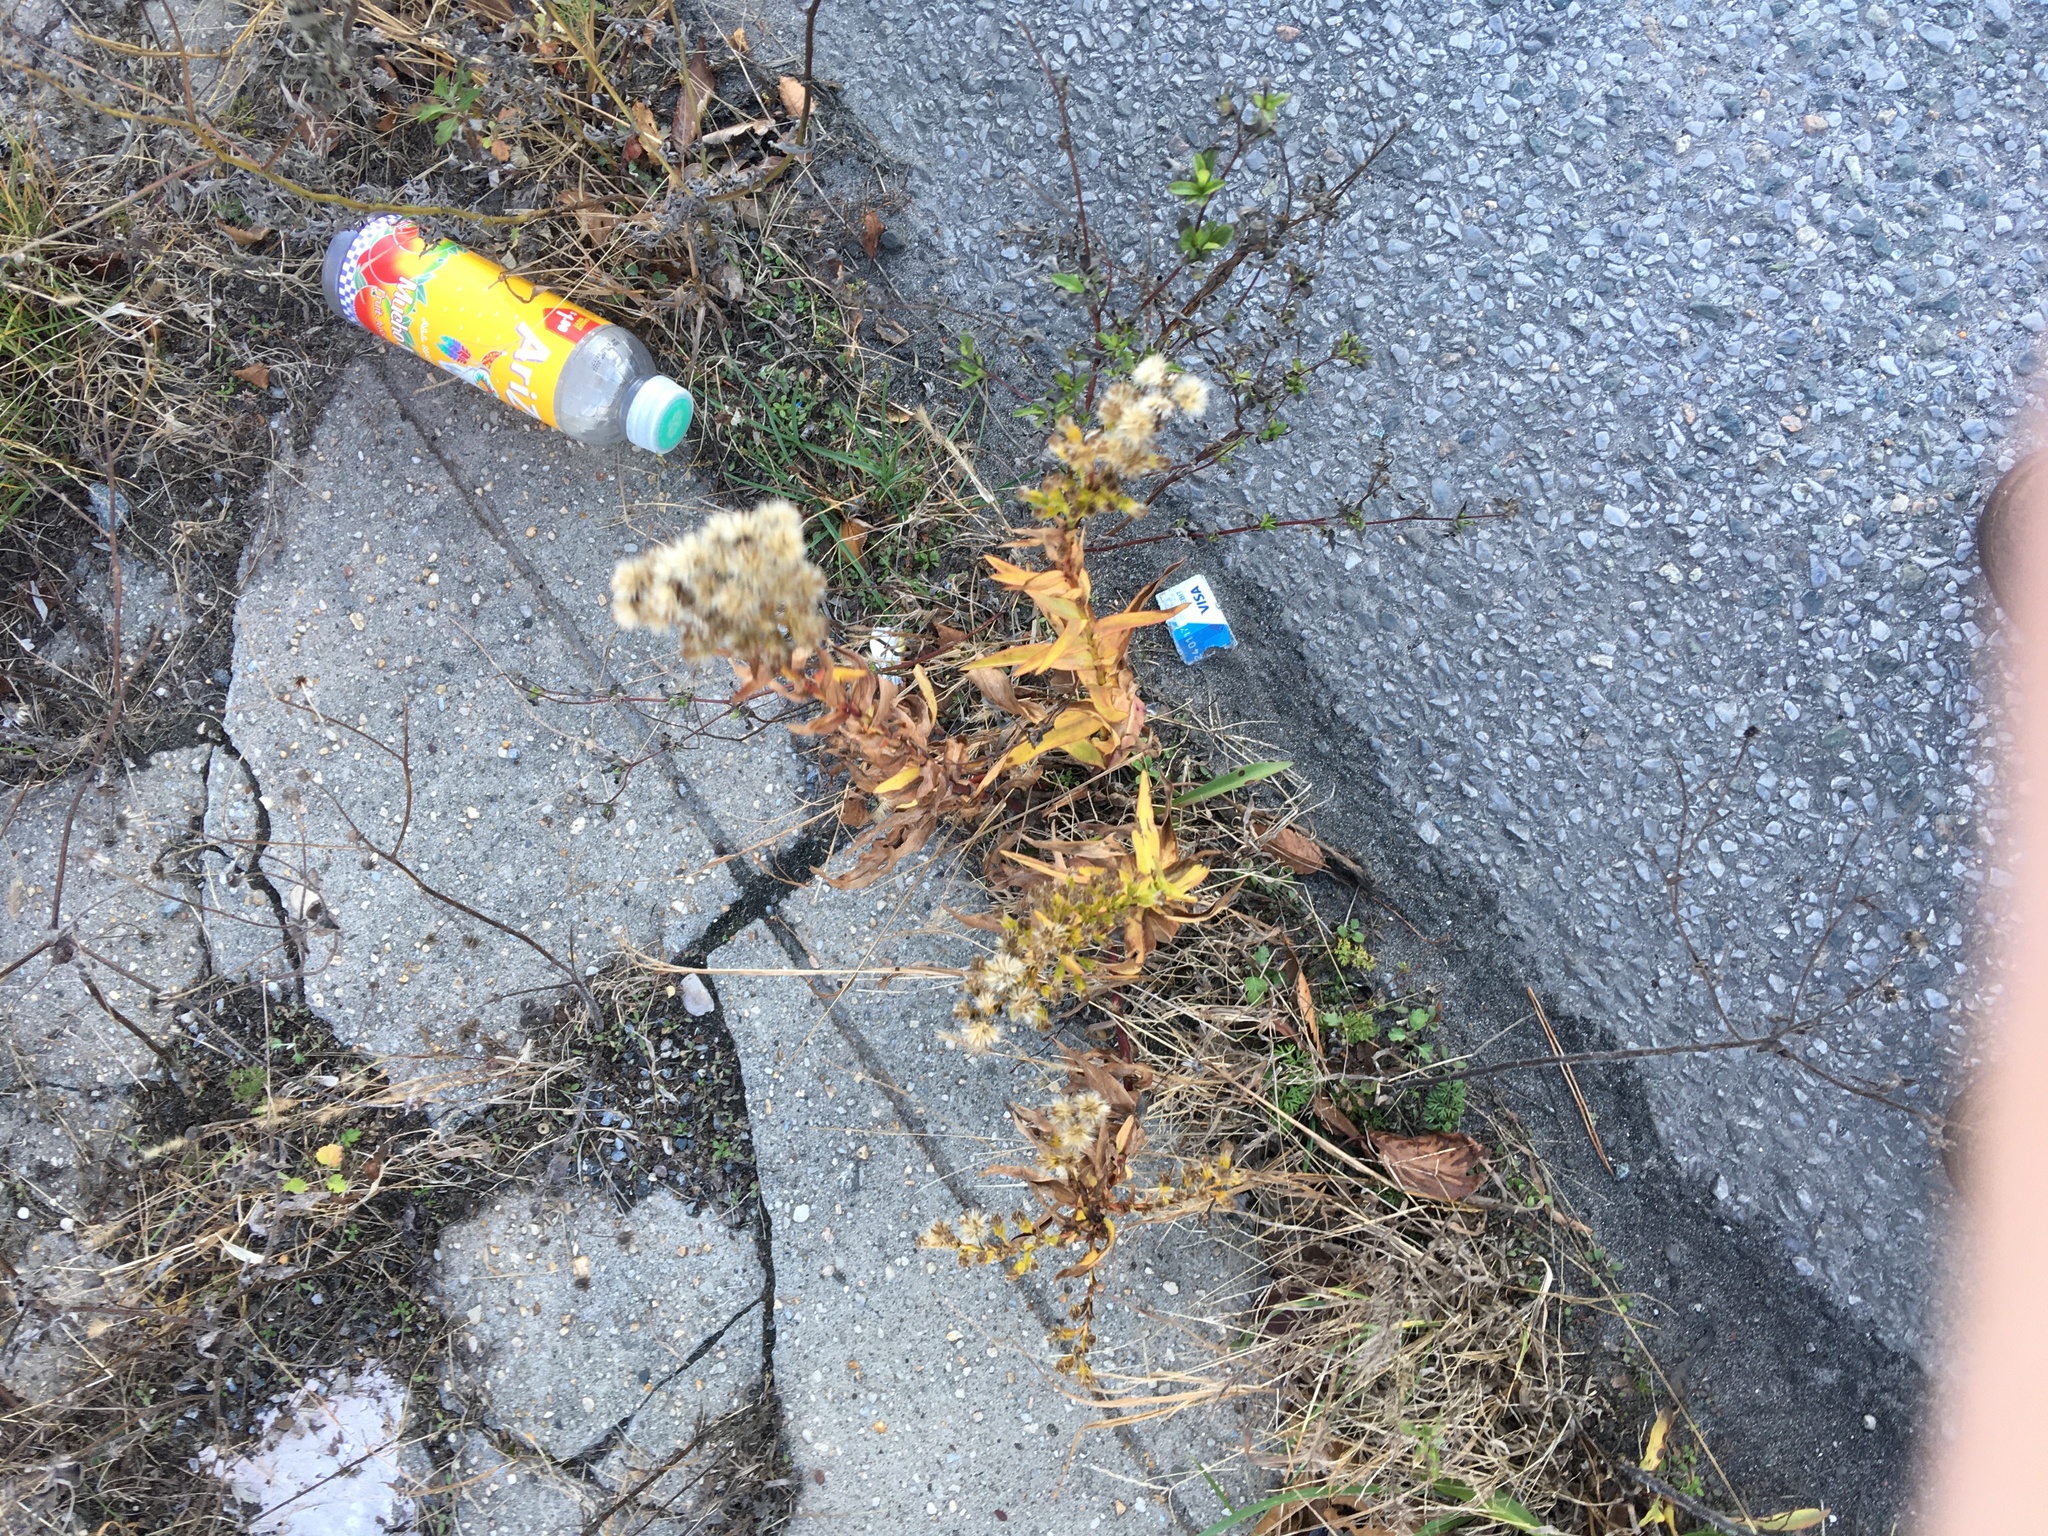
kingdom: Plantae
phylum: Tracheophyta
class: Magnoliopsida
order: Asterales
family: Asteraceae
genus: Solidago
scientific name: Solidago sempervirens
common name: Salt-marsh goldenrod
